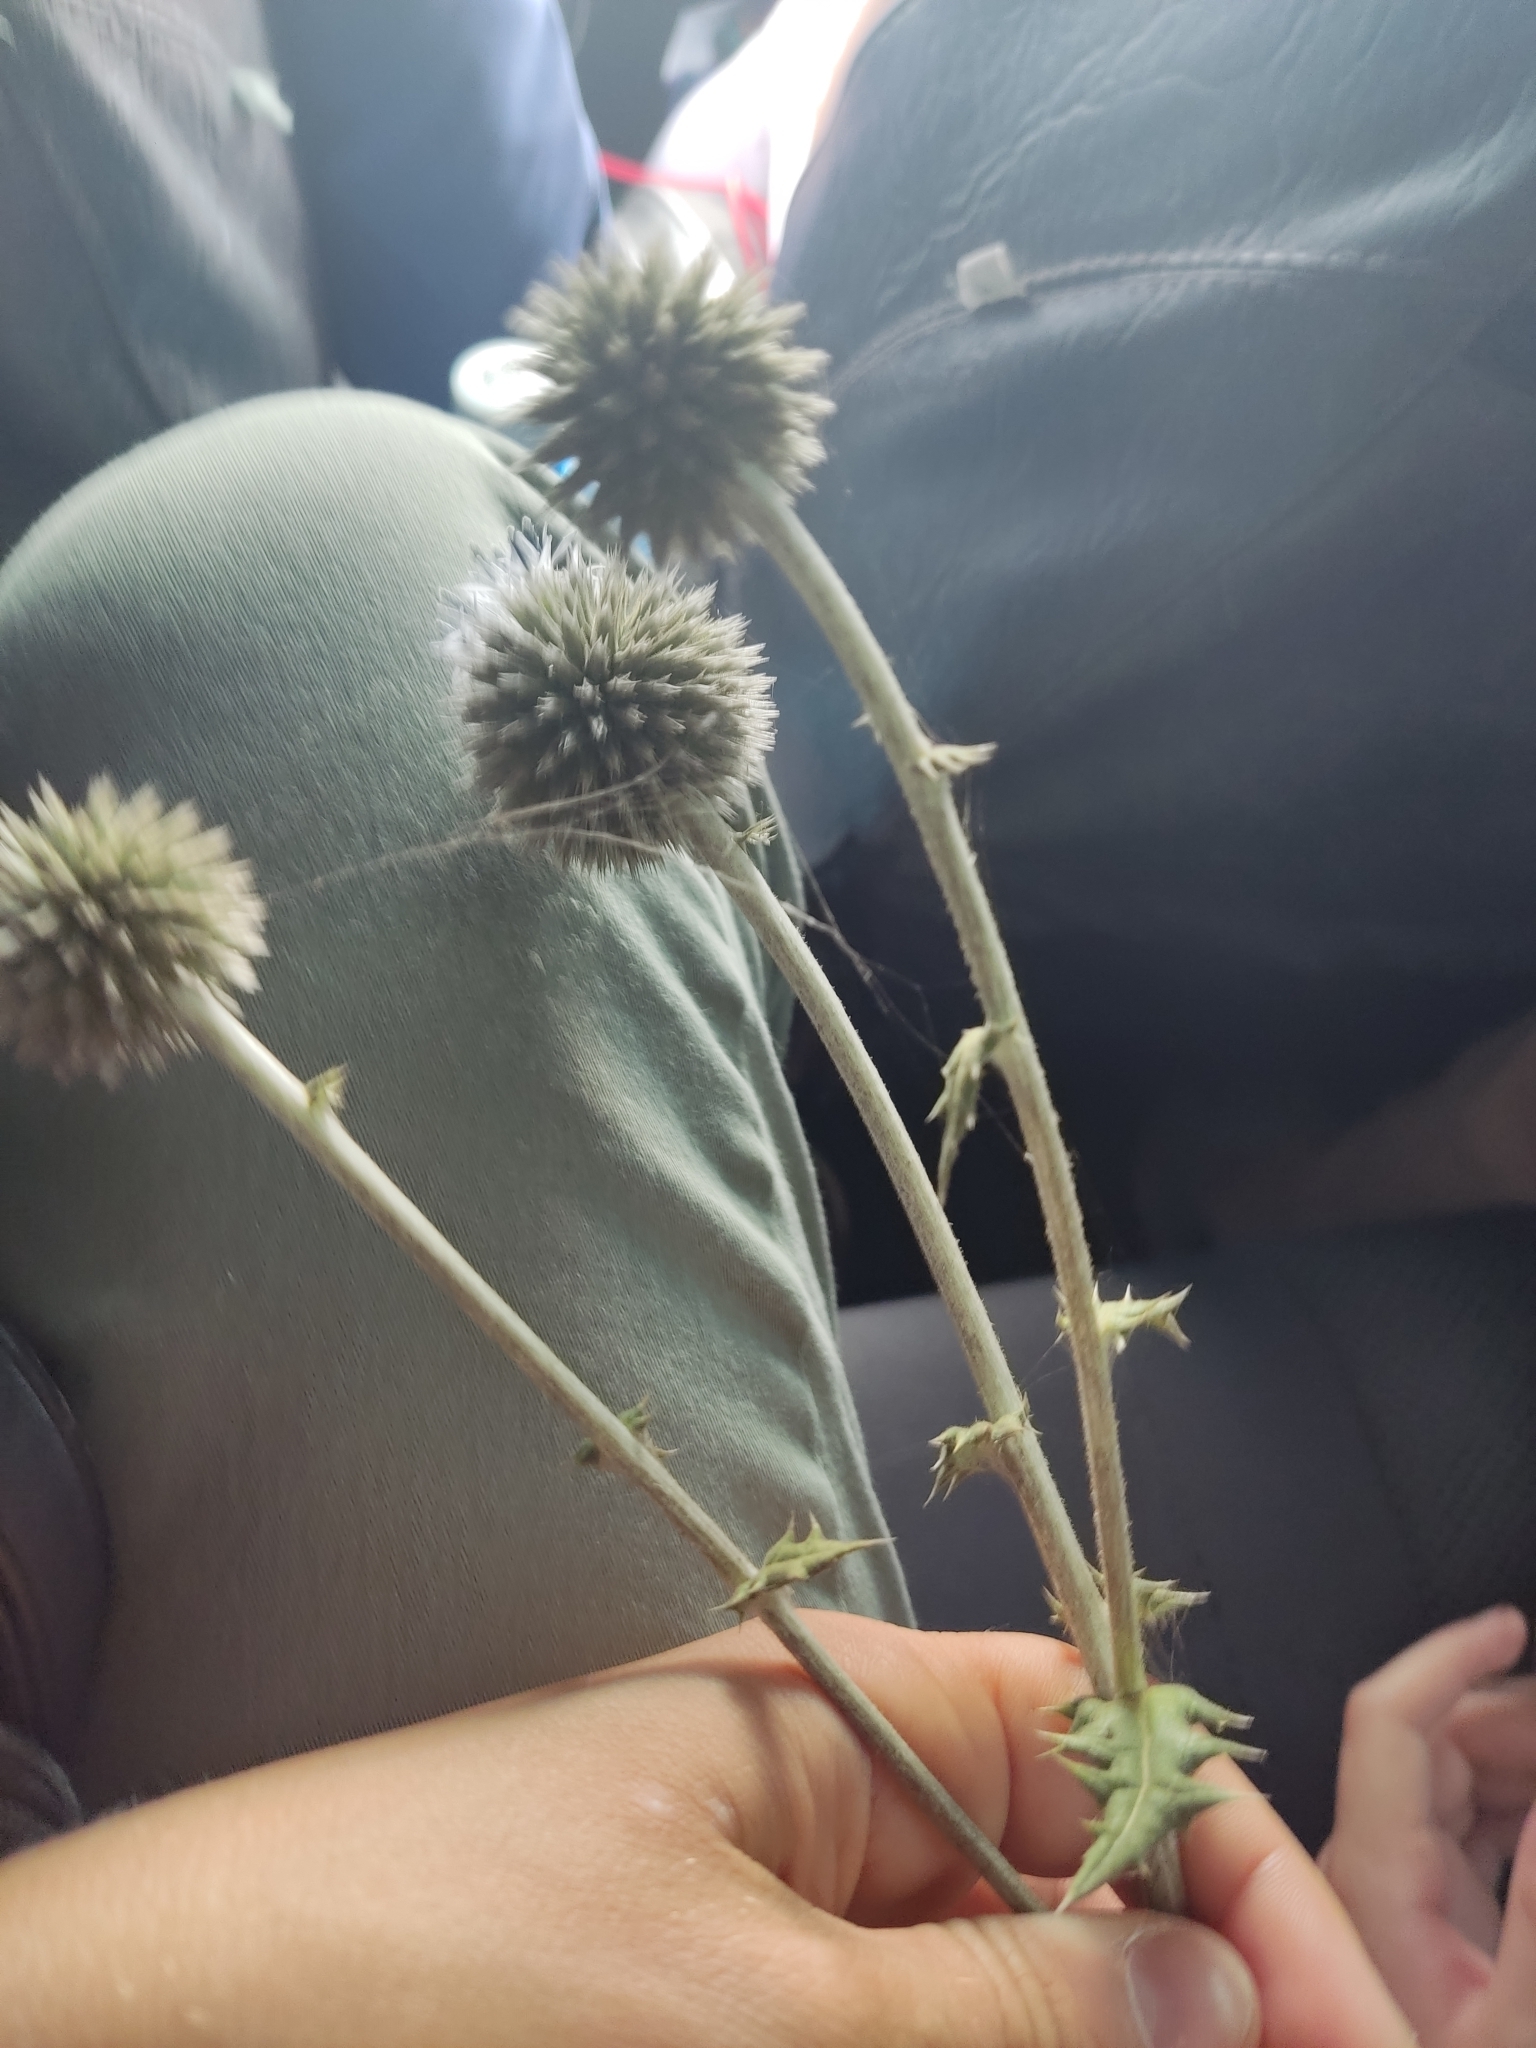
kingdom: Plantae
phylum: Tracheophyta
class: Magnoliopsida
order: Asterales
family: Asteraceae
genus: Echinops
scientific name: Echinops sphaerocephalus
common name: Glandular globe-thistle
